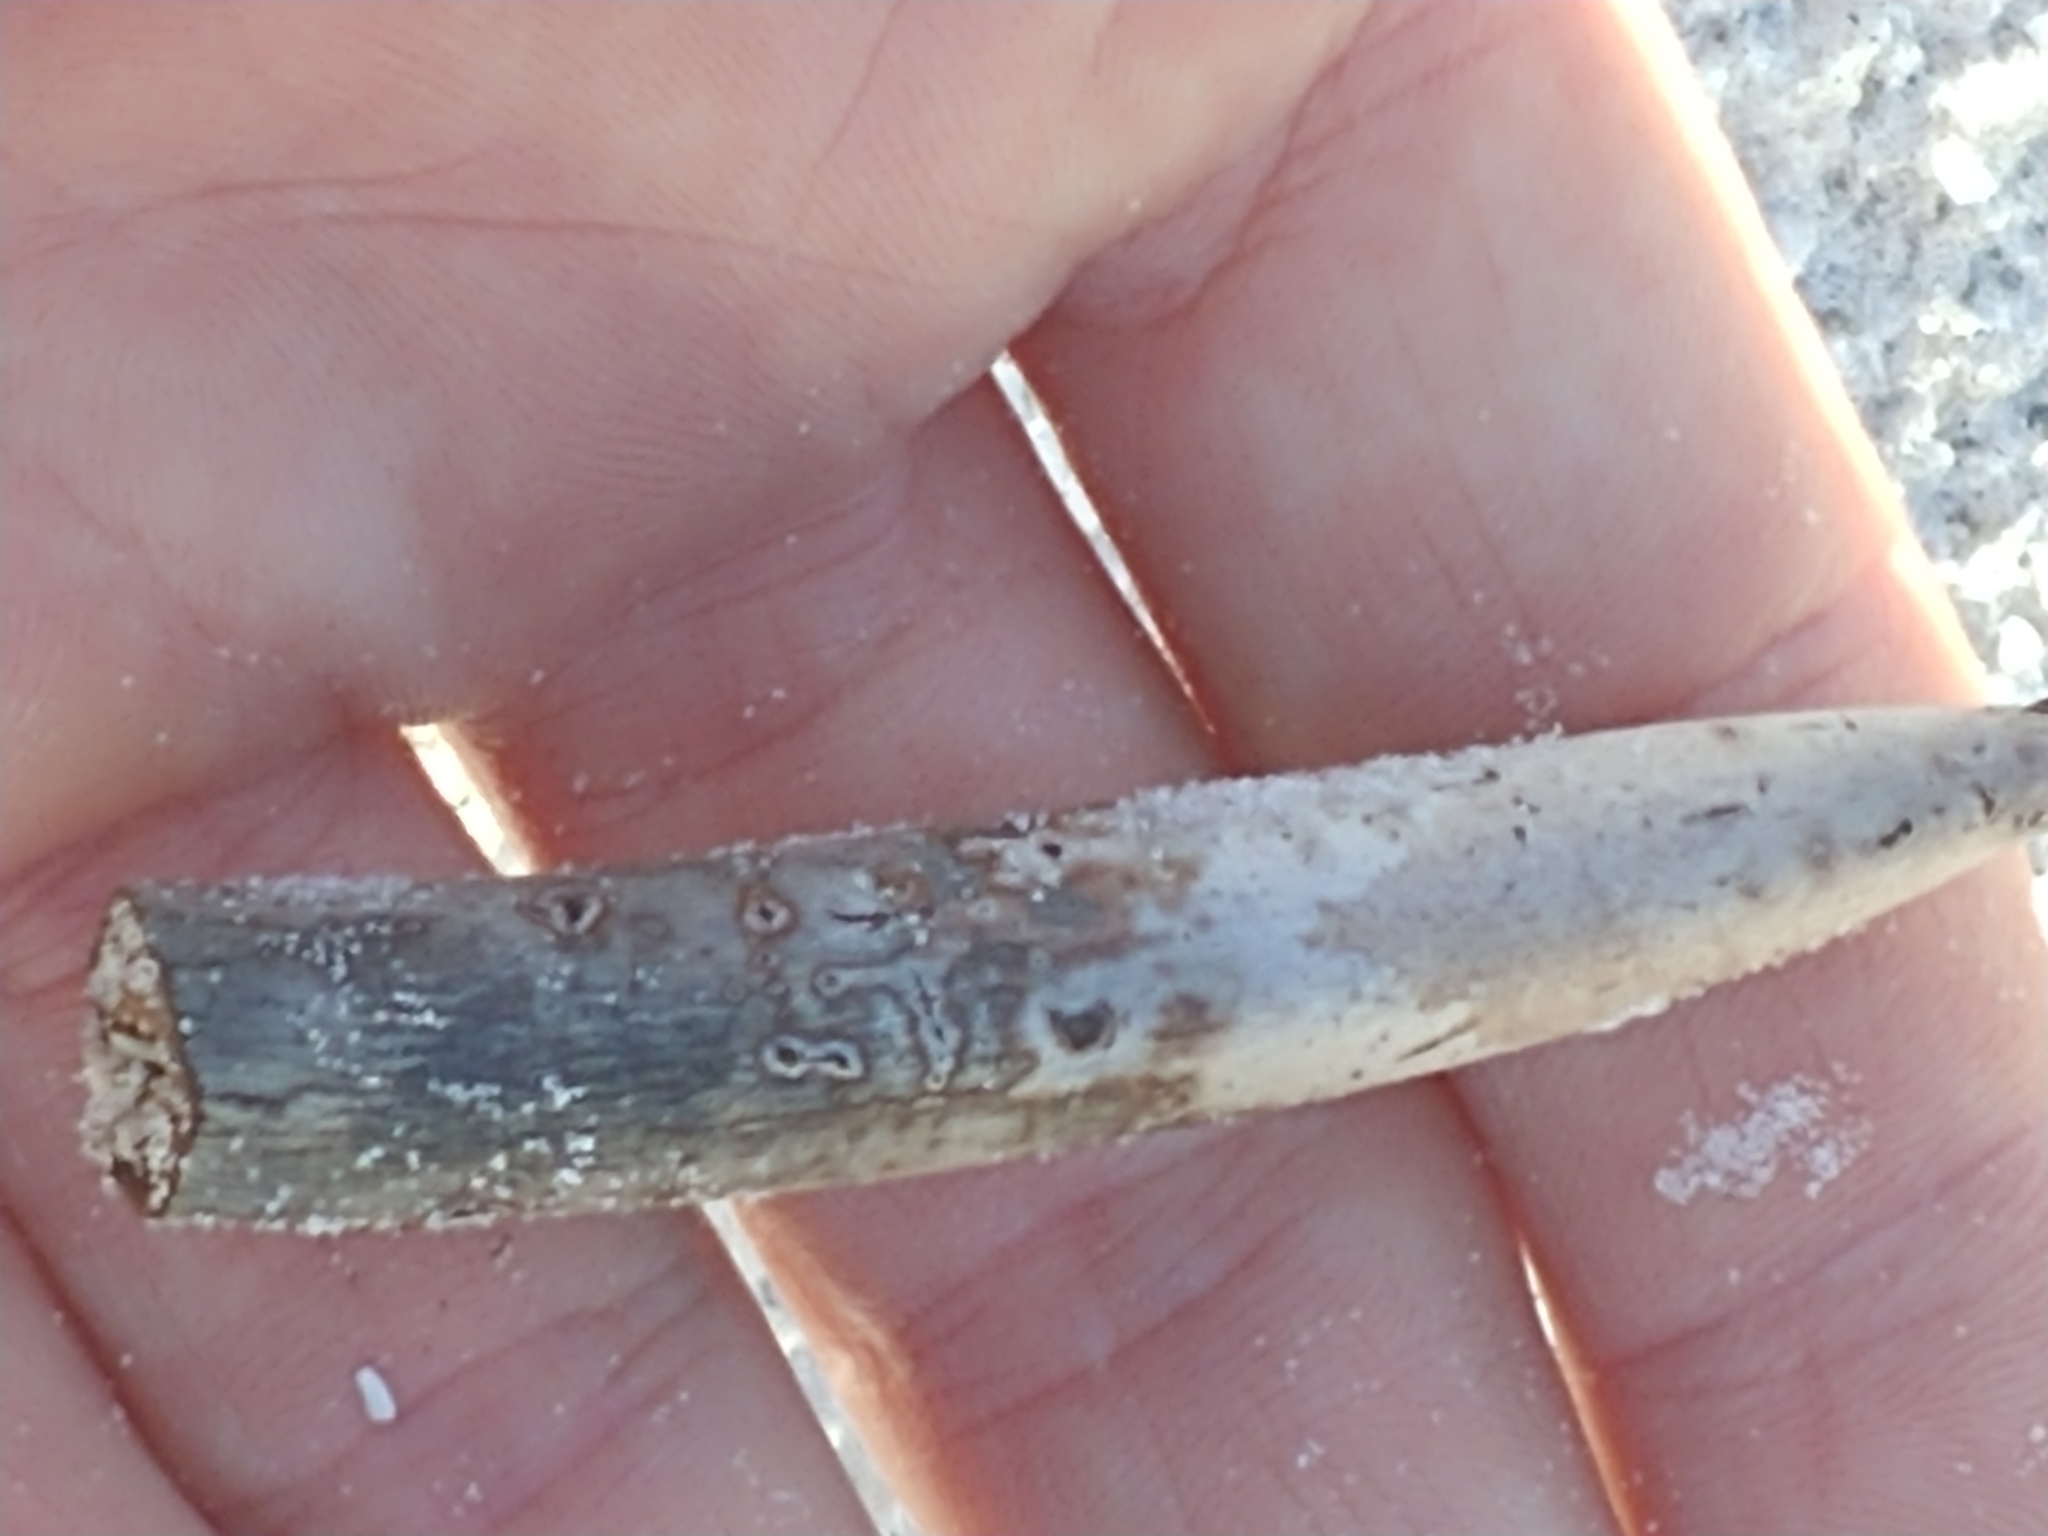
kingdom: Plantae
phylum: Tracheophyta
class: Magnoliopsida
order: Malpighiales
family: Rhizophoraceae
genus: Rhizophora
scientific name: Rhizophora mangle
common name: Red mangrove
